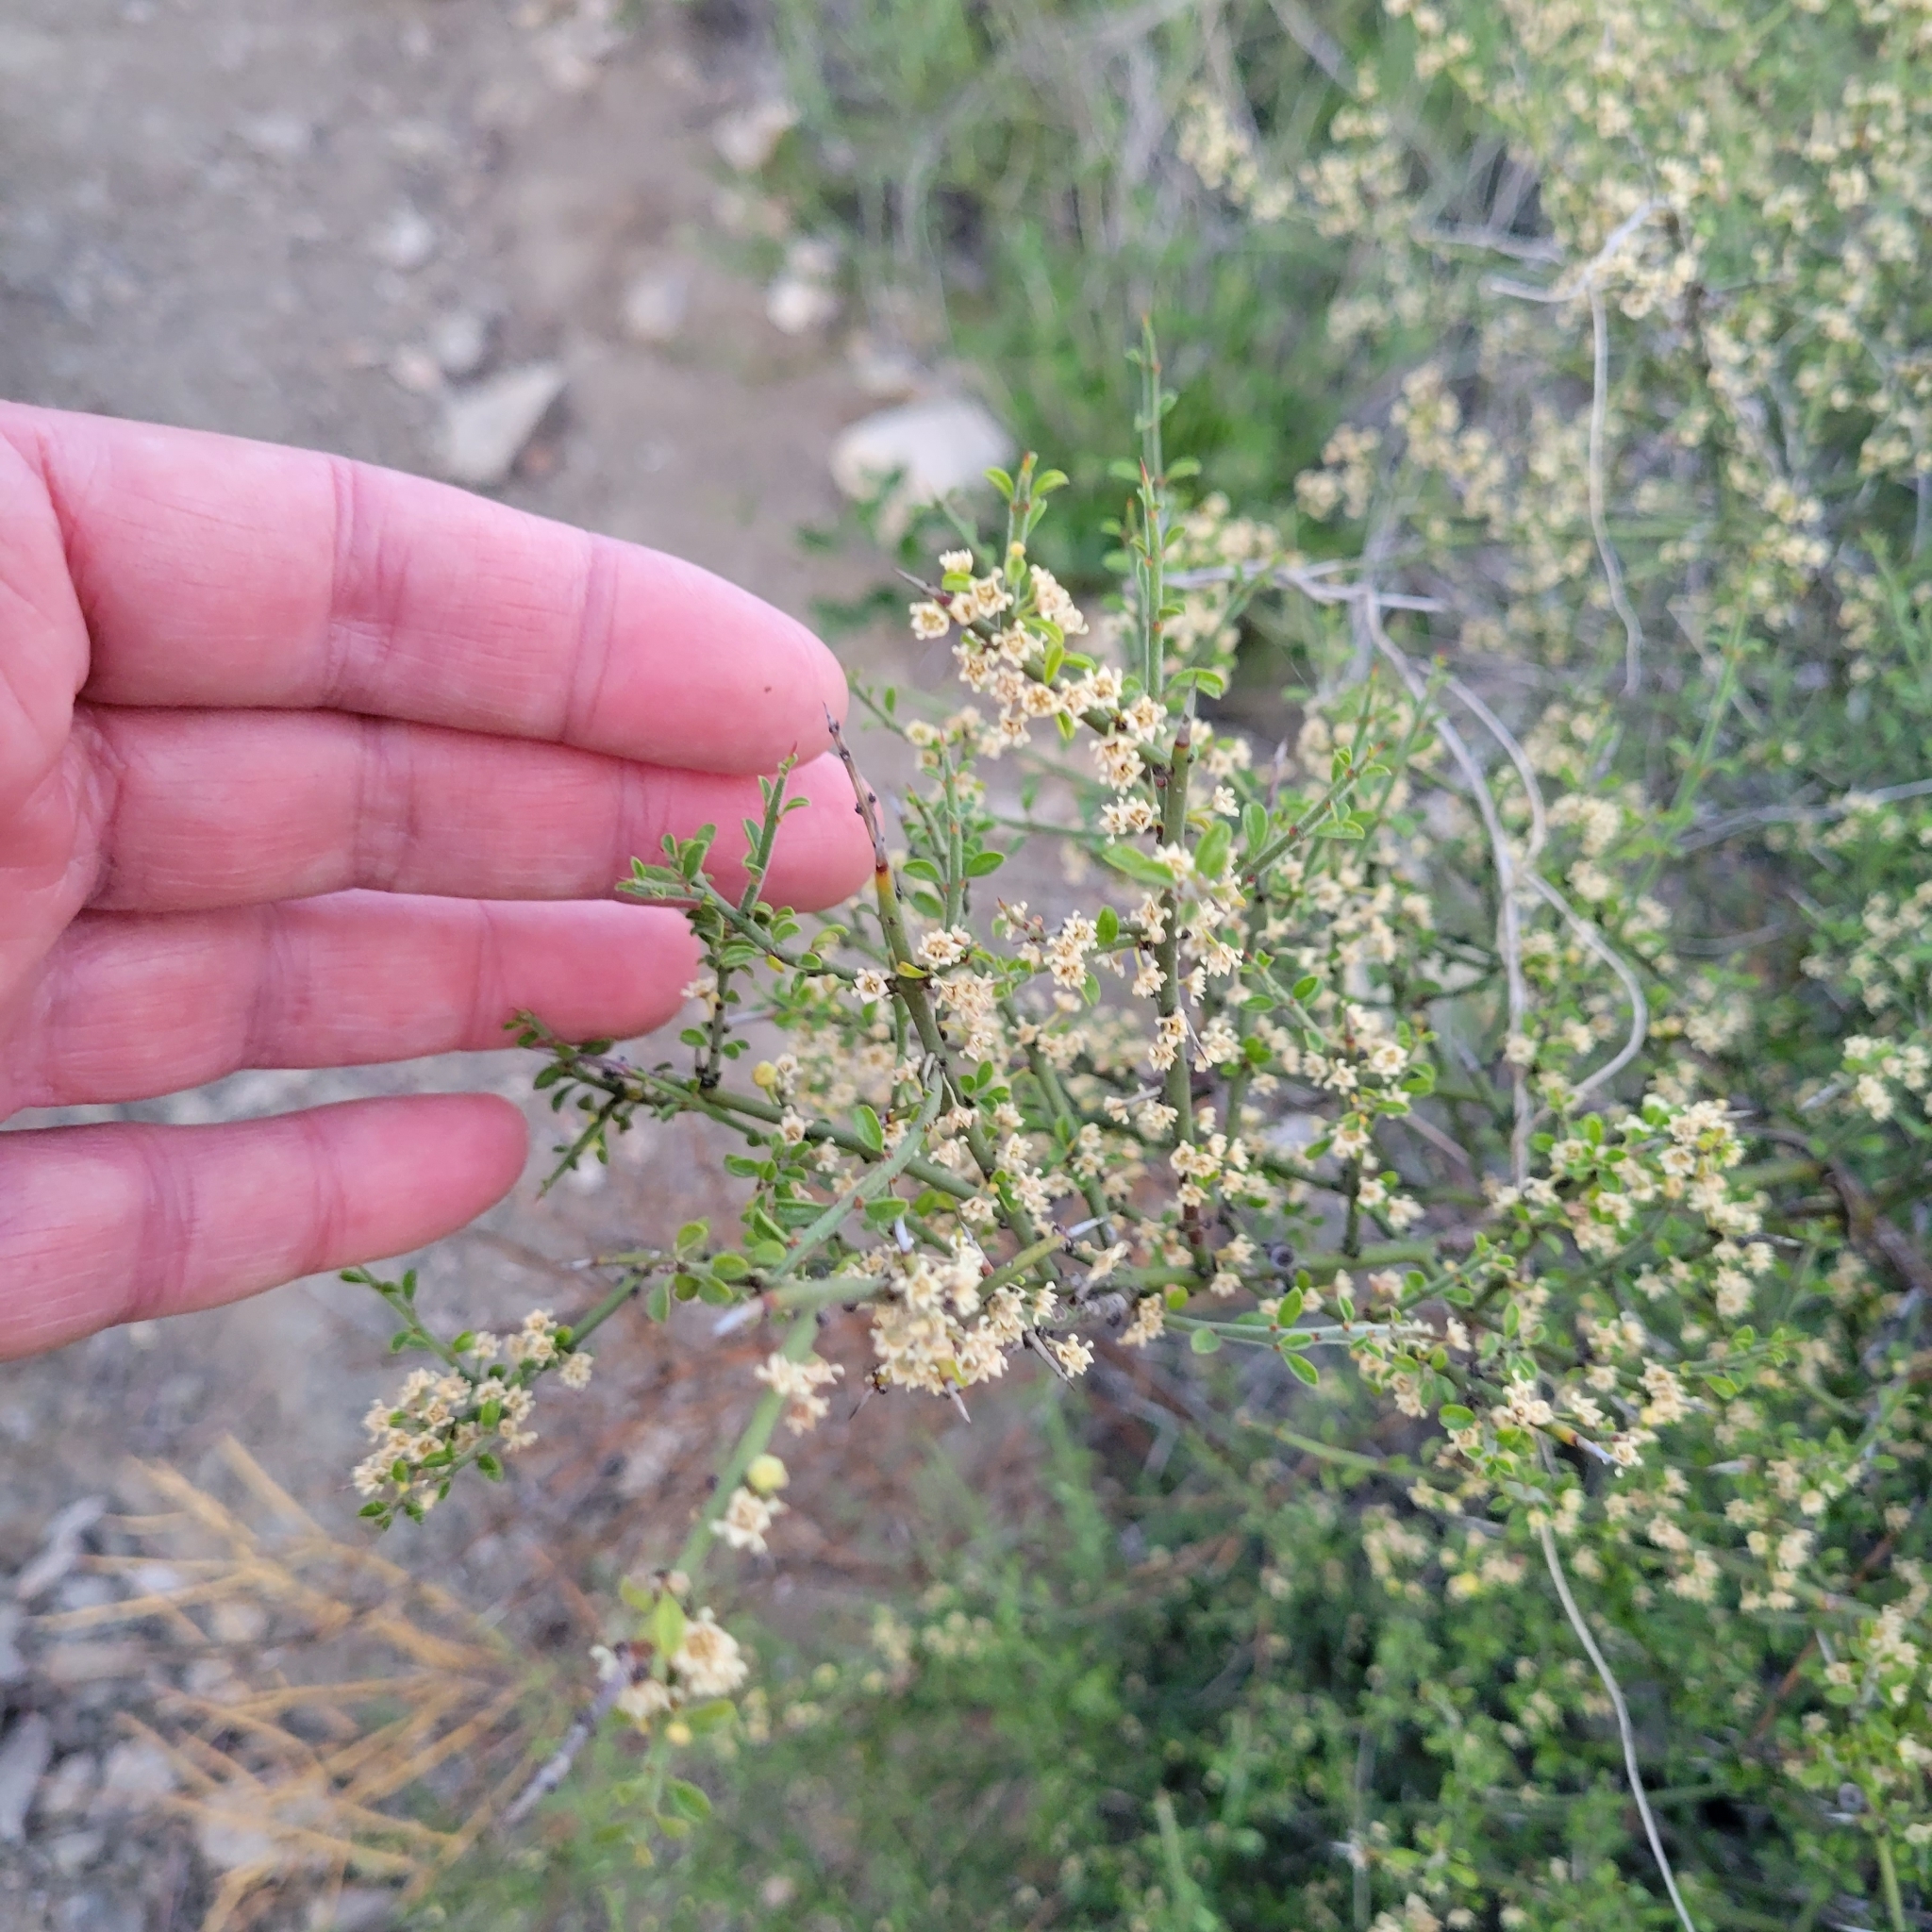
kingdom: Plantae
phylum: Tracheophyta
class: Magnoliopsida
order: Rosales
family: Rhamnaceae
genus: Adolphia
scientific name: Adolphia californica
